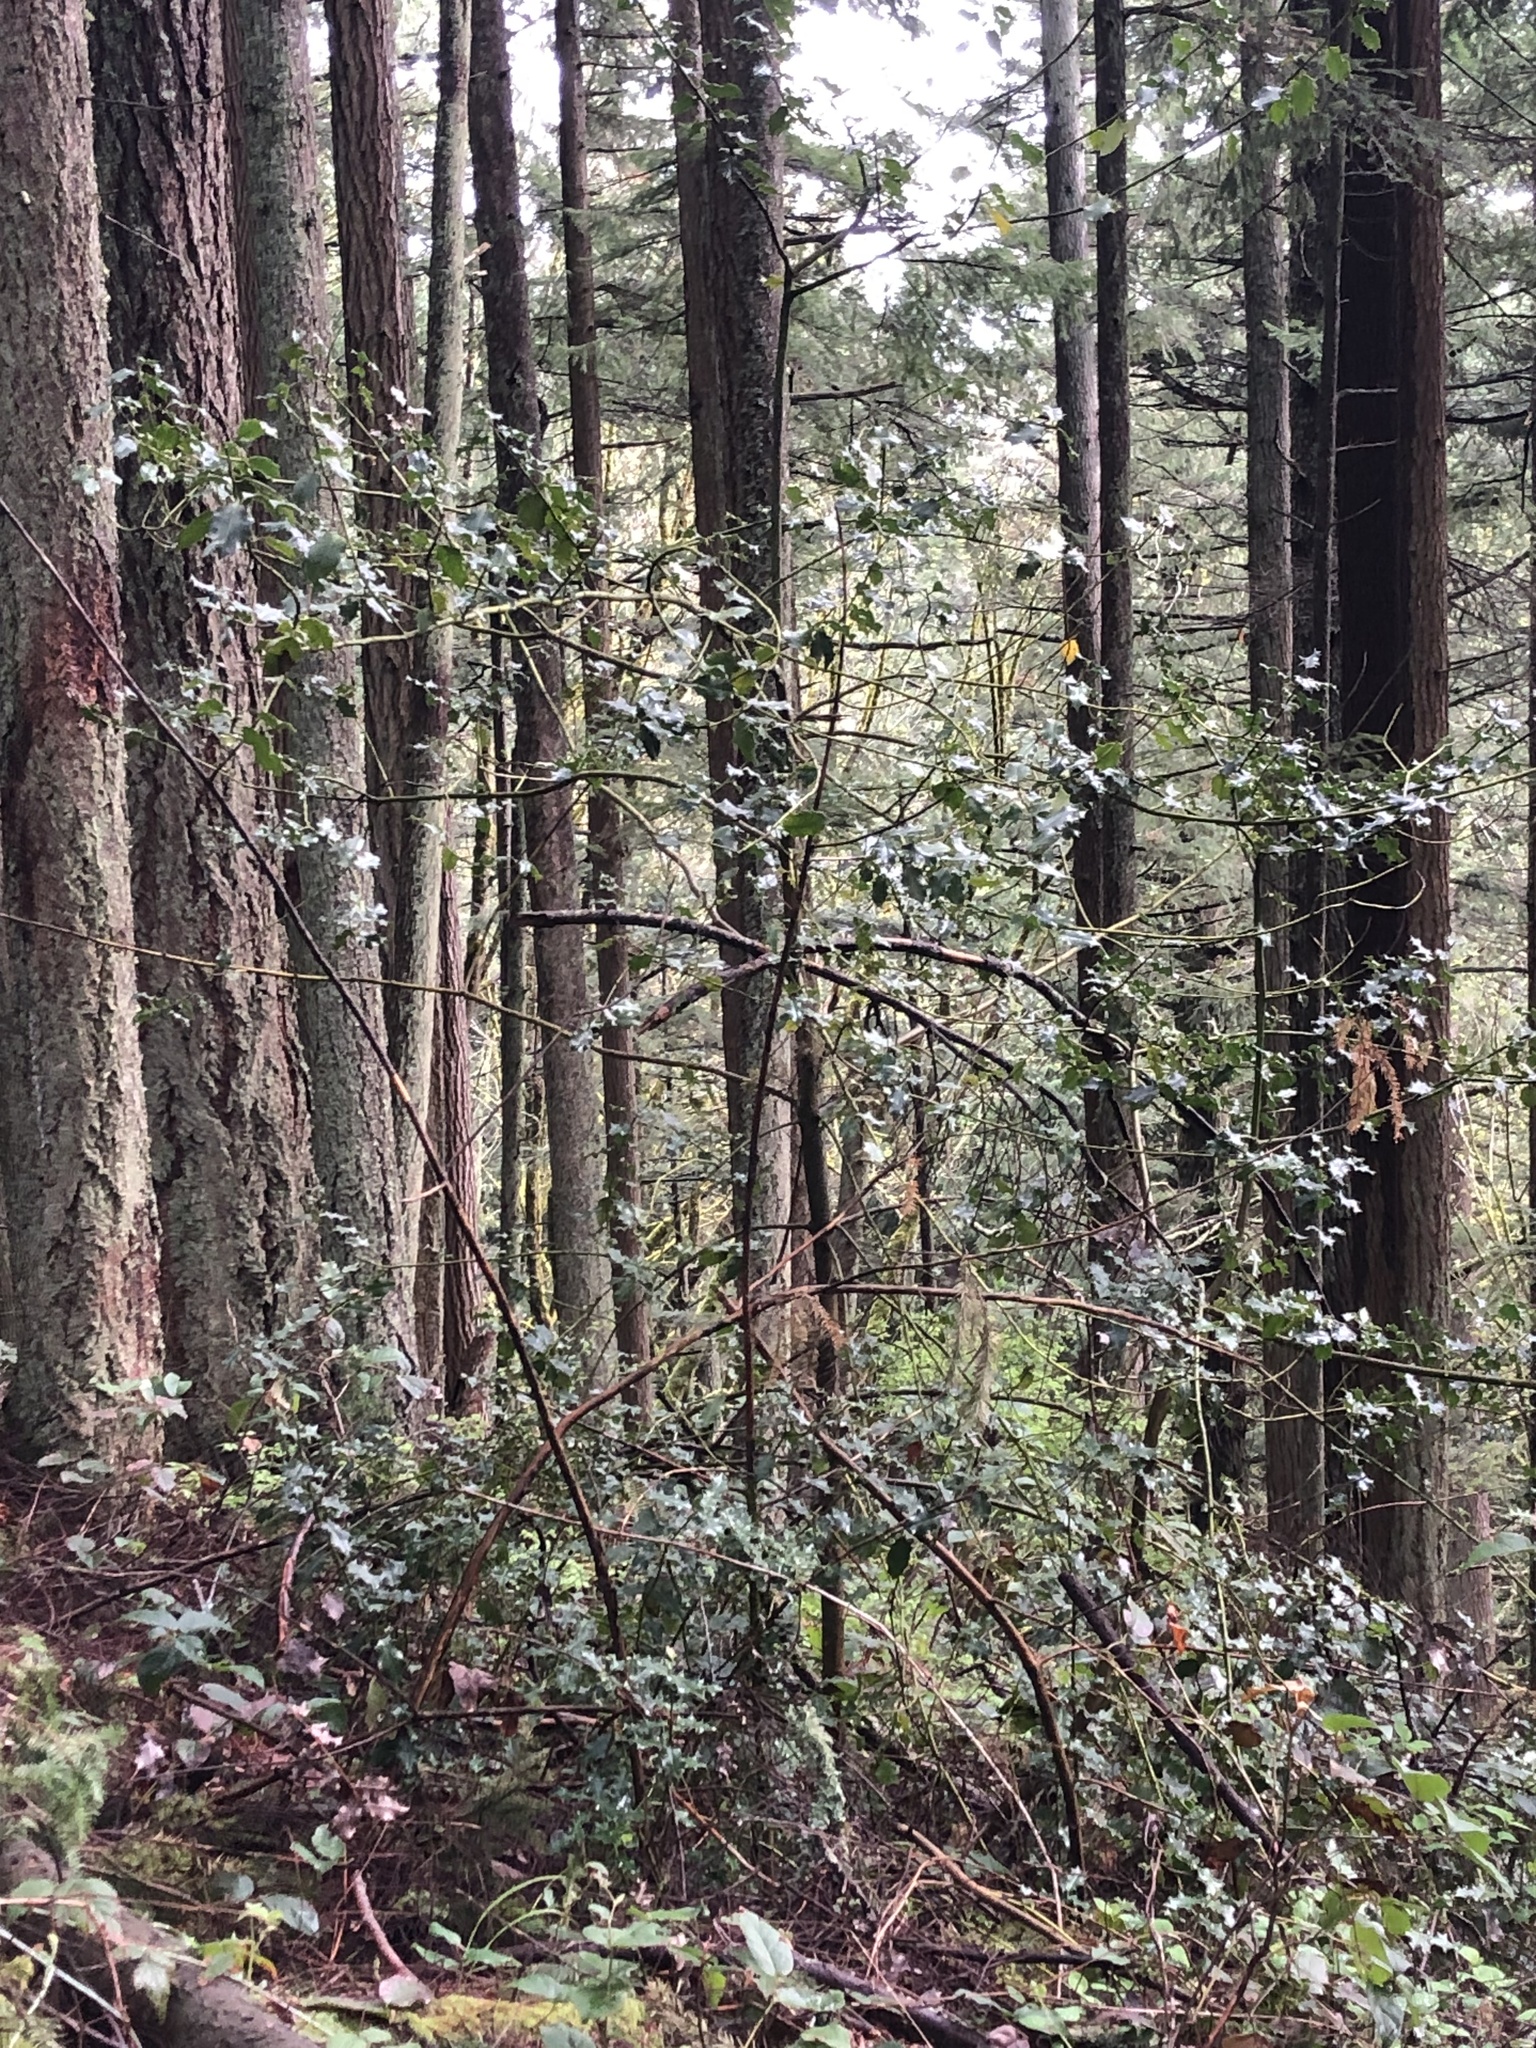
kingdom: Plantae
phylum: Tracheophyta
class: Magnoliopsida
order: Aquifoliales
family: Aquifoliaceae
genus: Ilex
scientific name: Ilex aquifolium
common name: English holly
